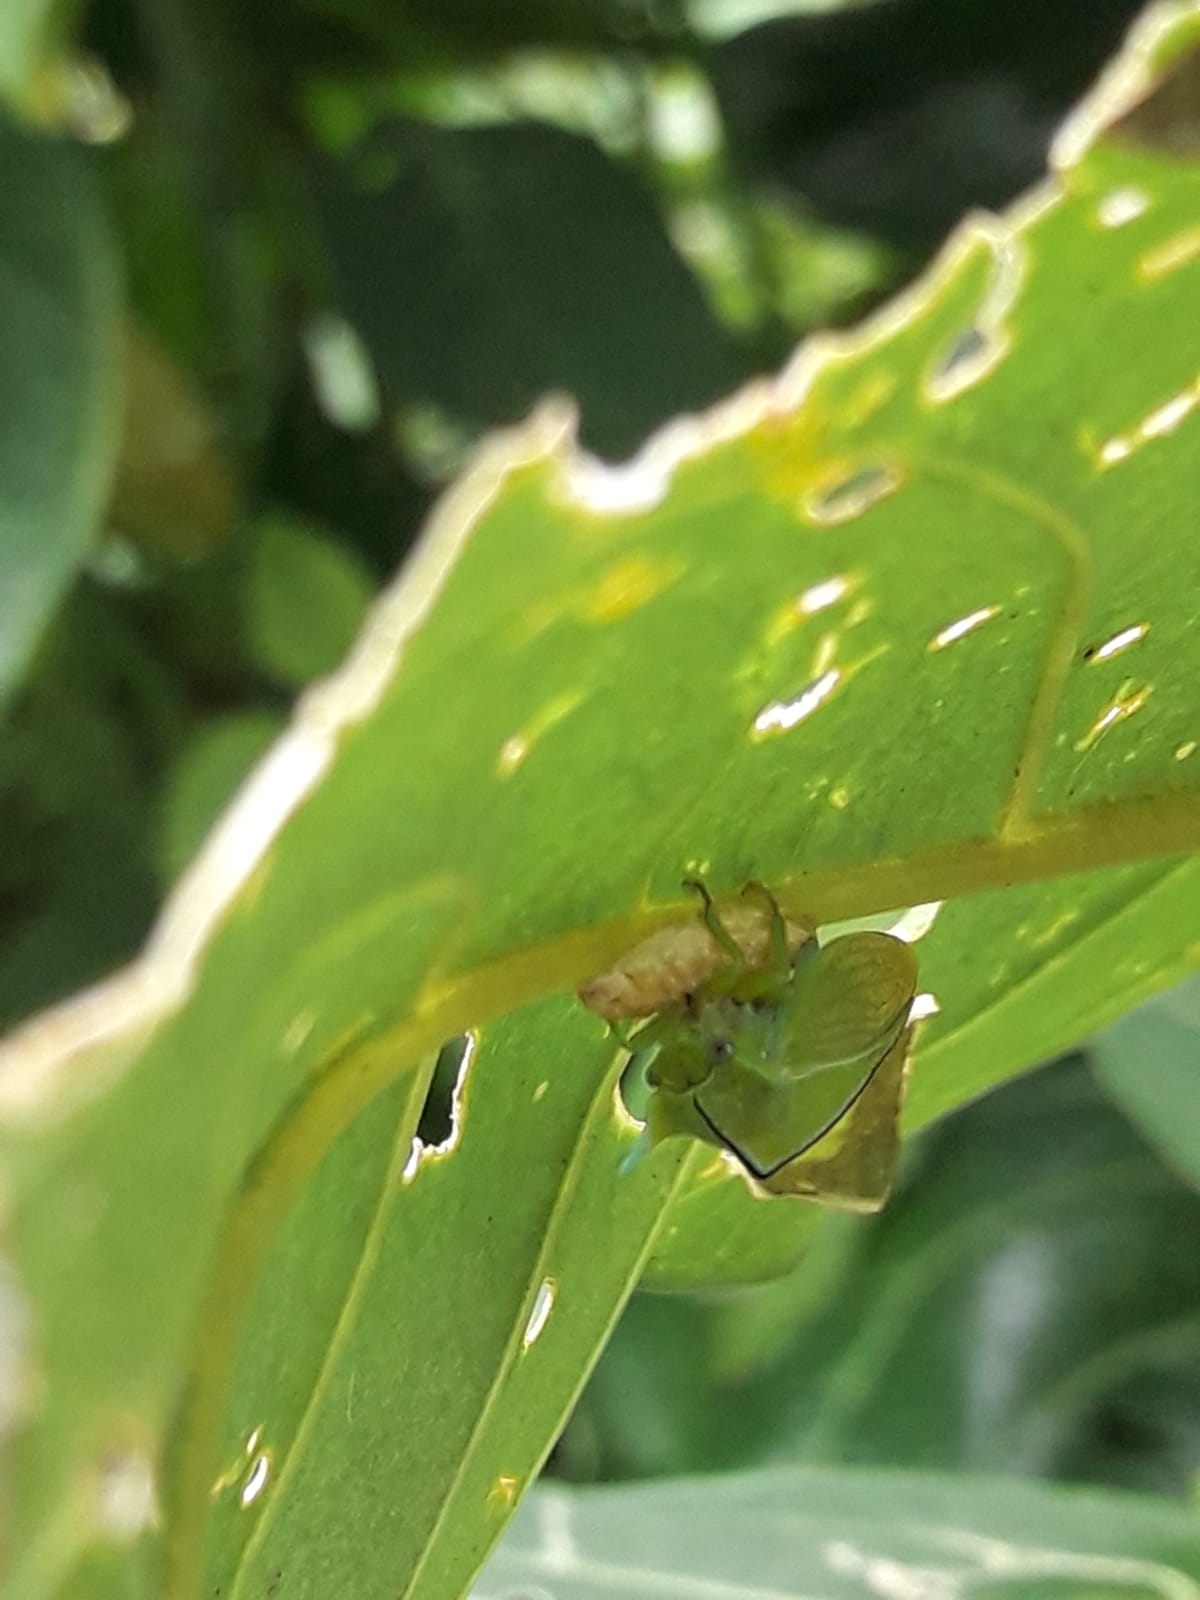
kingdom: Animalia
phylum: Arthropoda
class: Insecta
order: Hemiptera
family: Membracidae
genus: Alchisme
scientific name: Alchisme inermis
